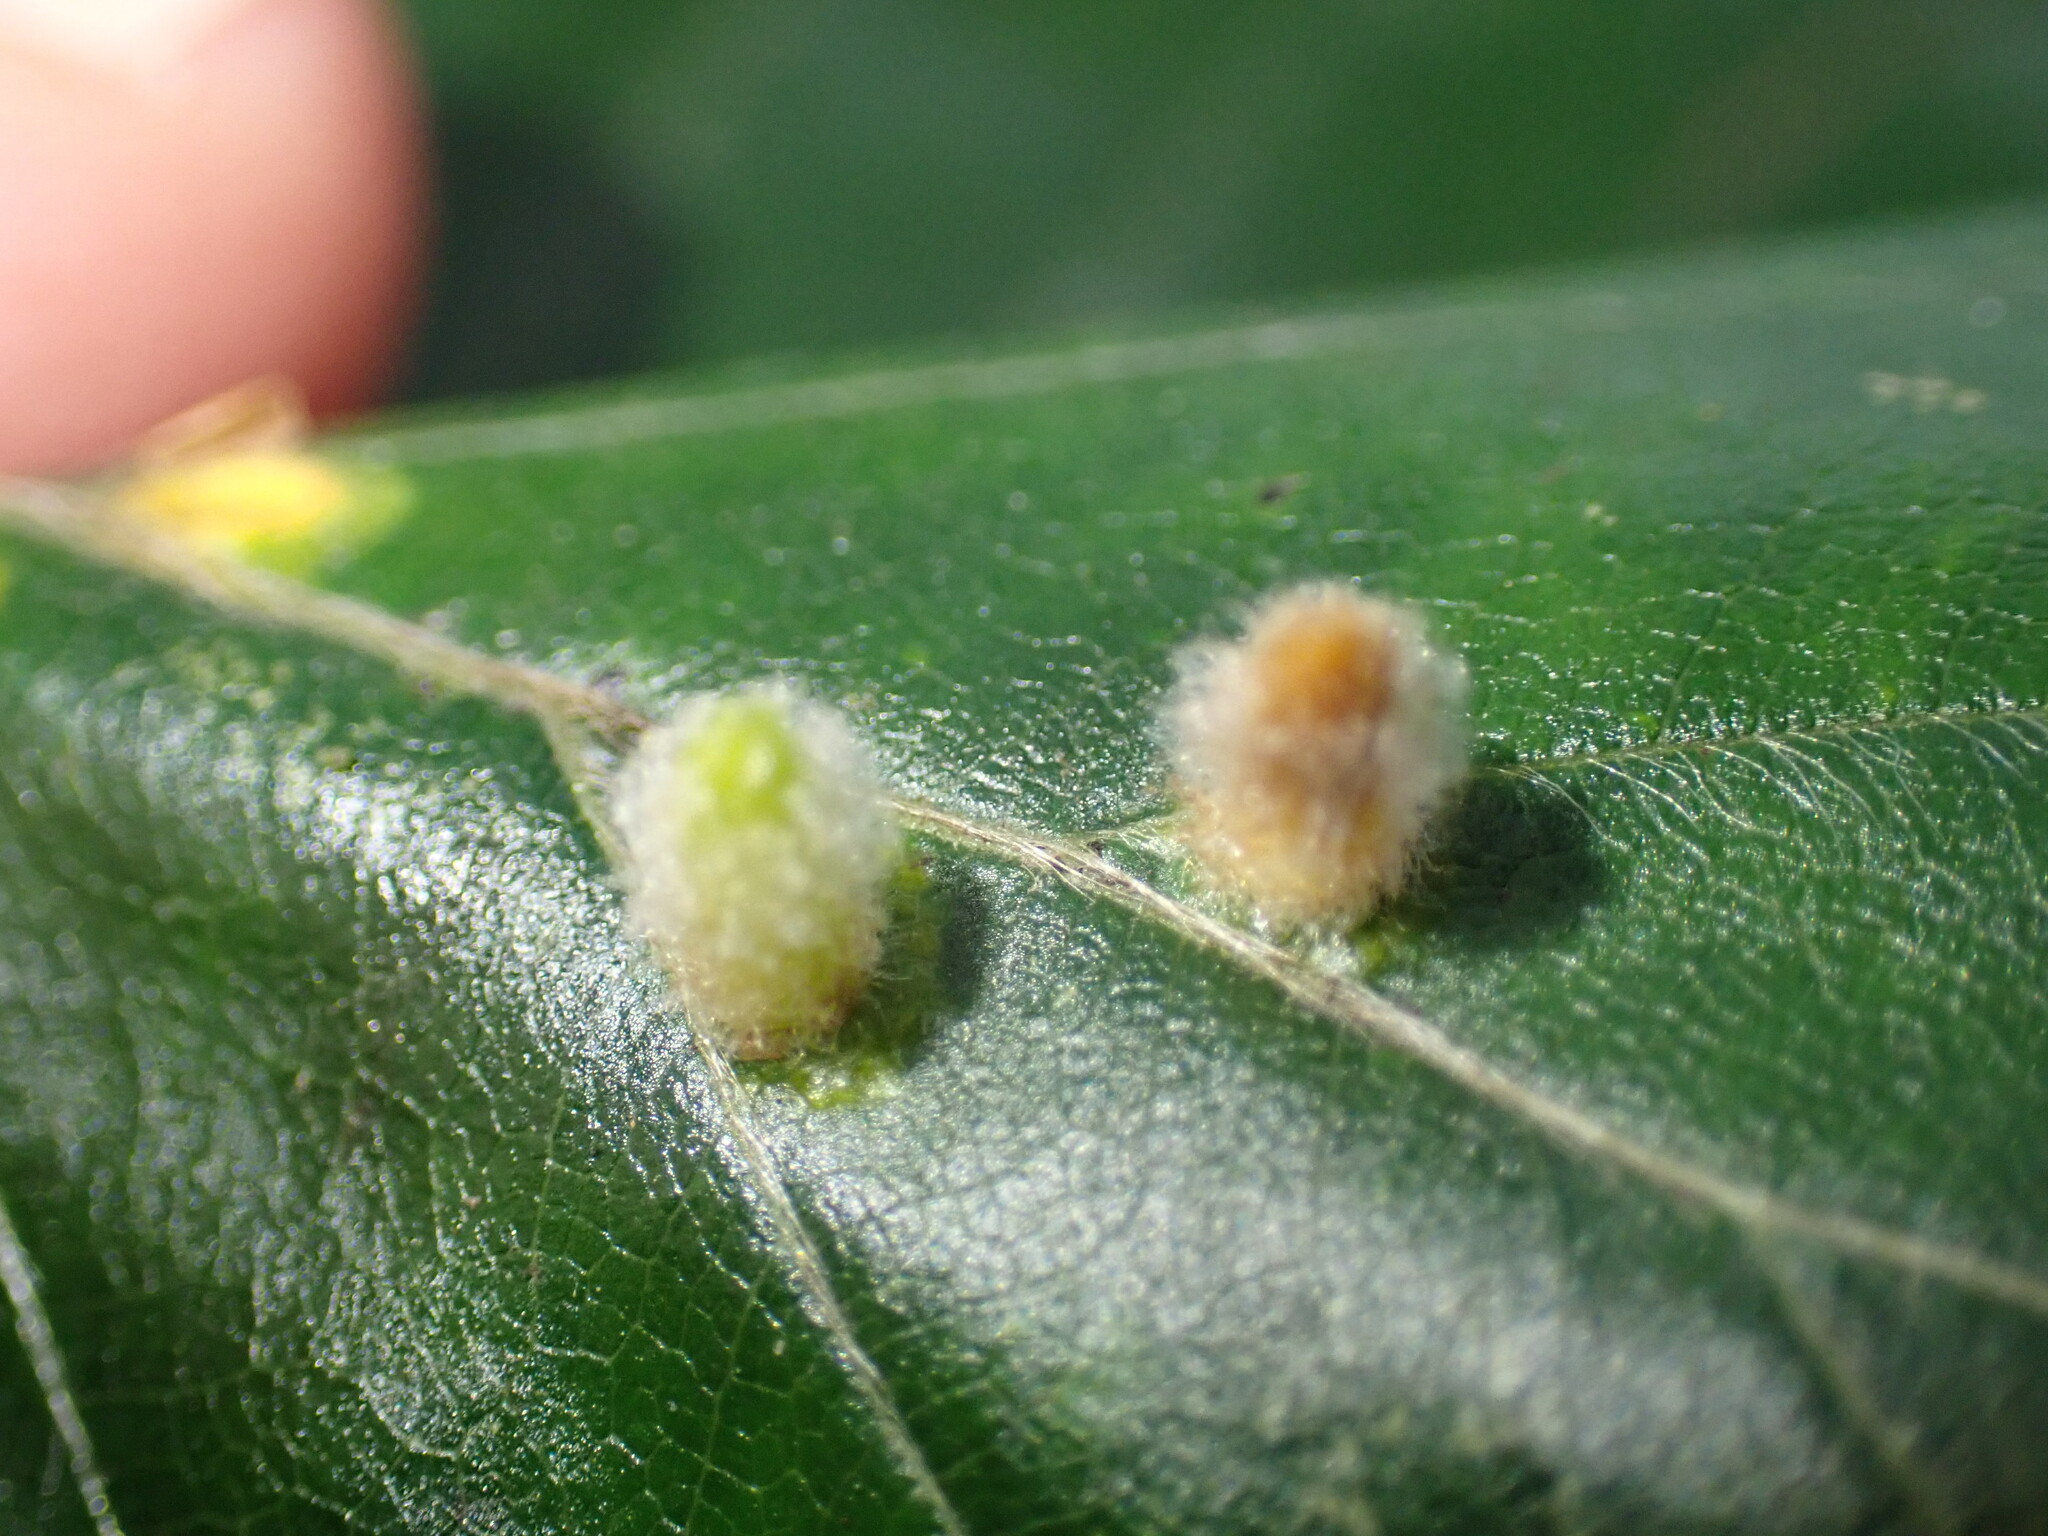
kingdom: Animalia
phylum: Arthropoda
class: Insecta
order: Diptera
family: Cecidomyiidae
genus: Hartigiola
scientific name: Hartigiola annulipes
